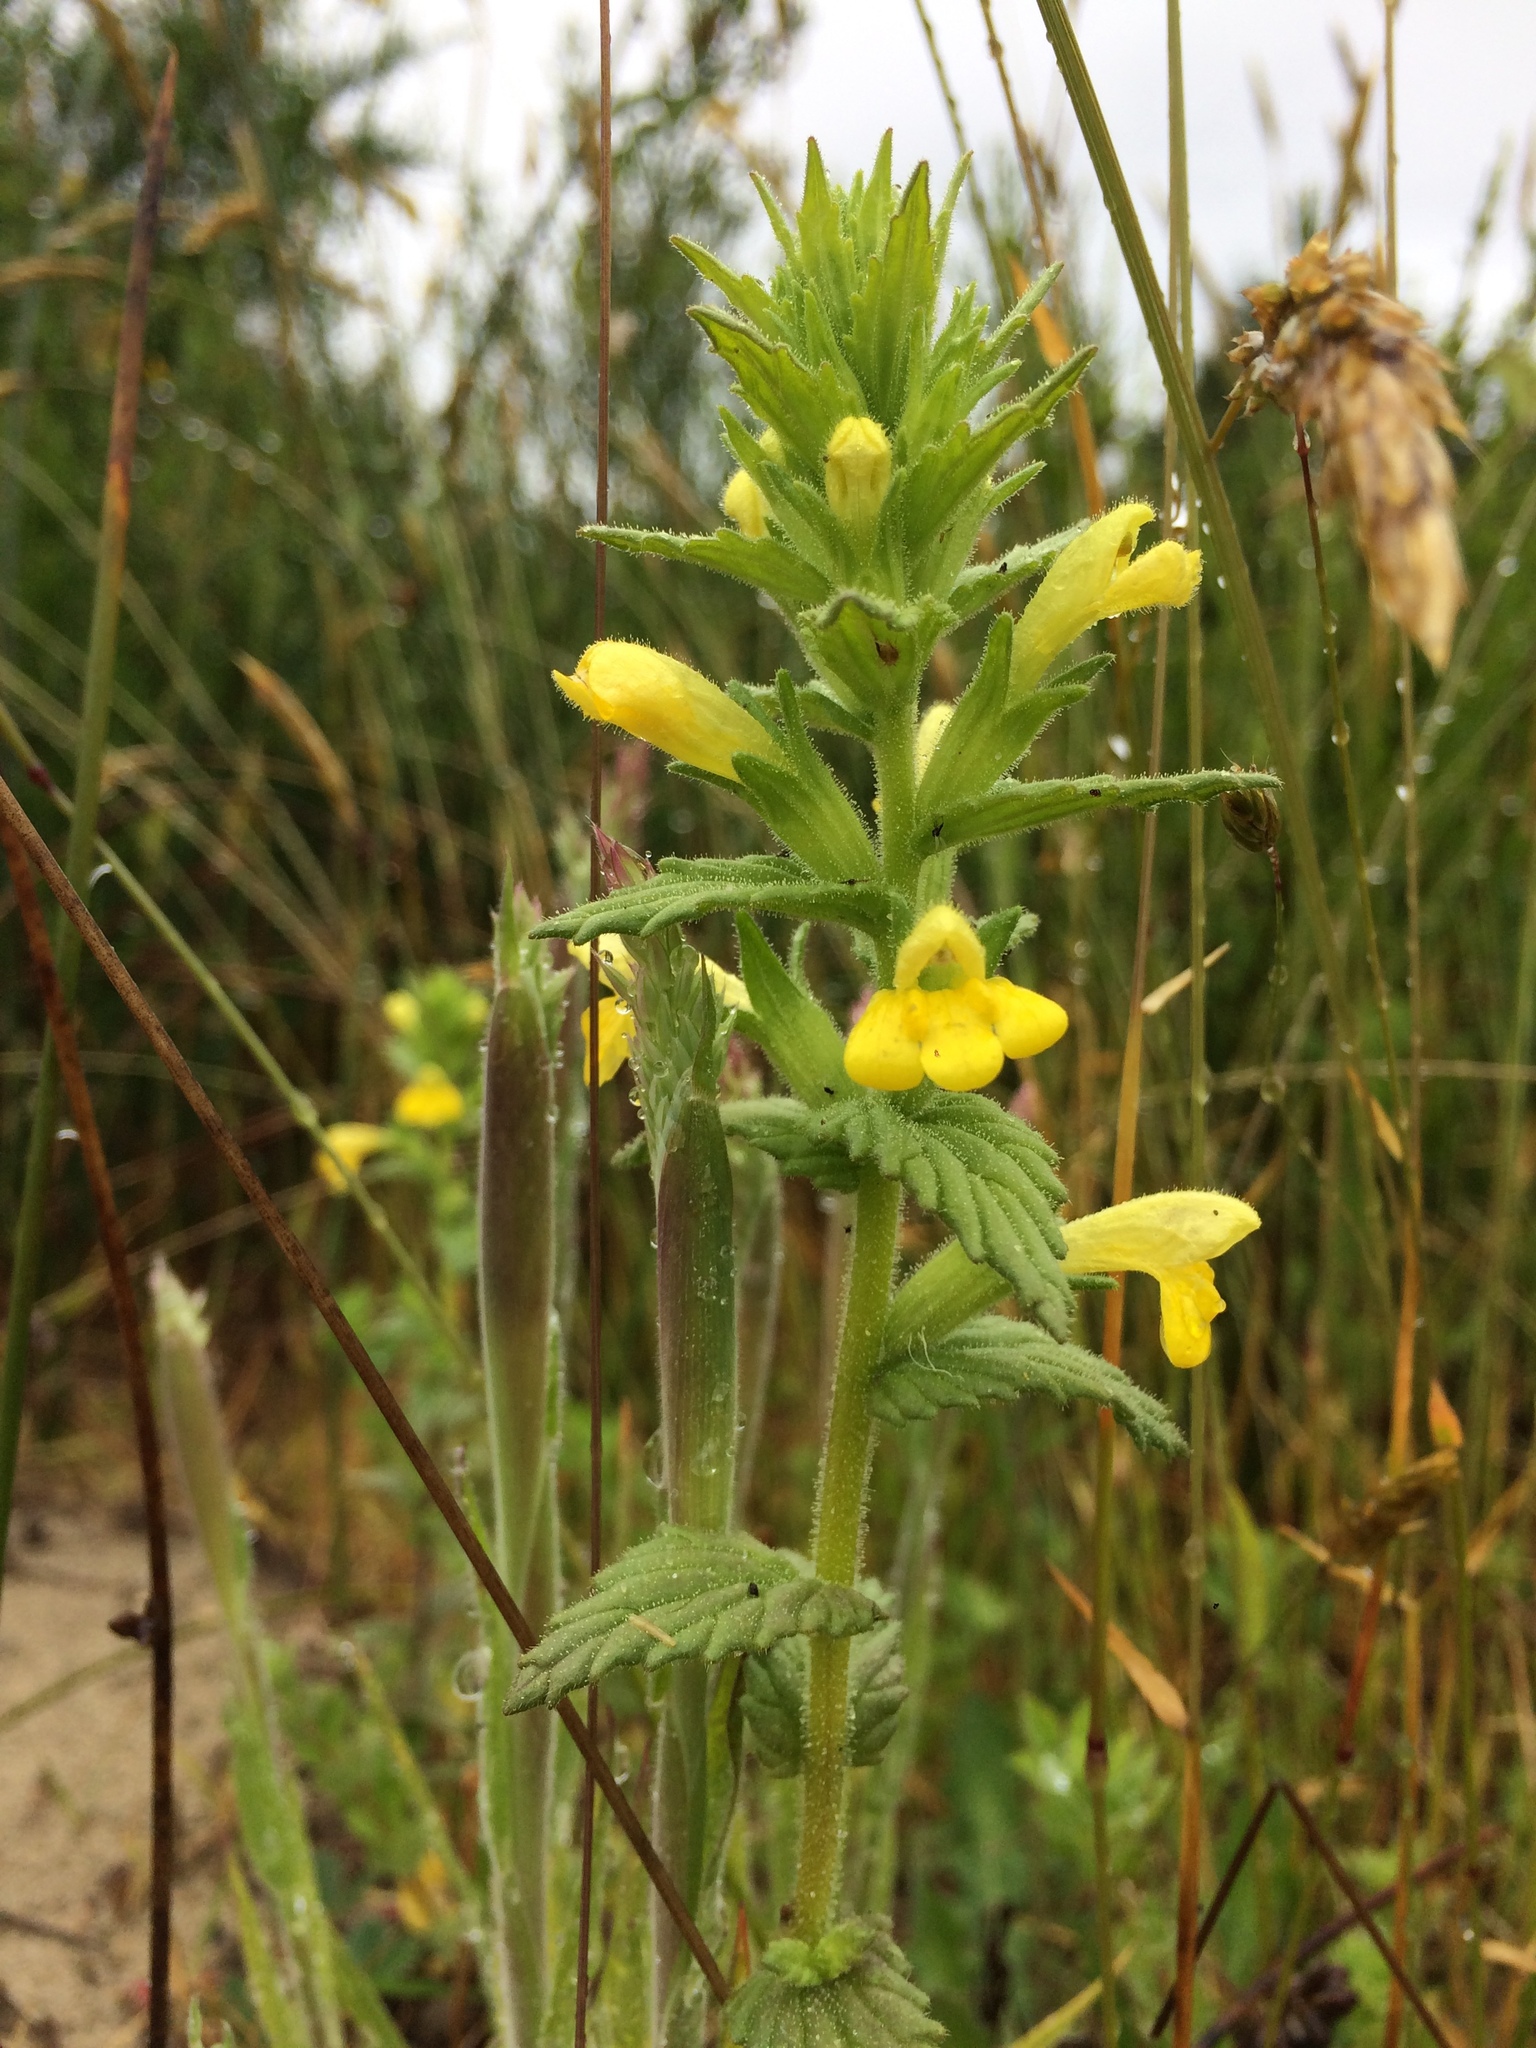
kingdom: Plantae
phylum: Tracheophyta
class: Magnoliopsida
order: Lamiales
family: Orobanchaceae
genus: Bellardia
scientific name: Bellardia viscosa
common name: Sticky parentucellia
